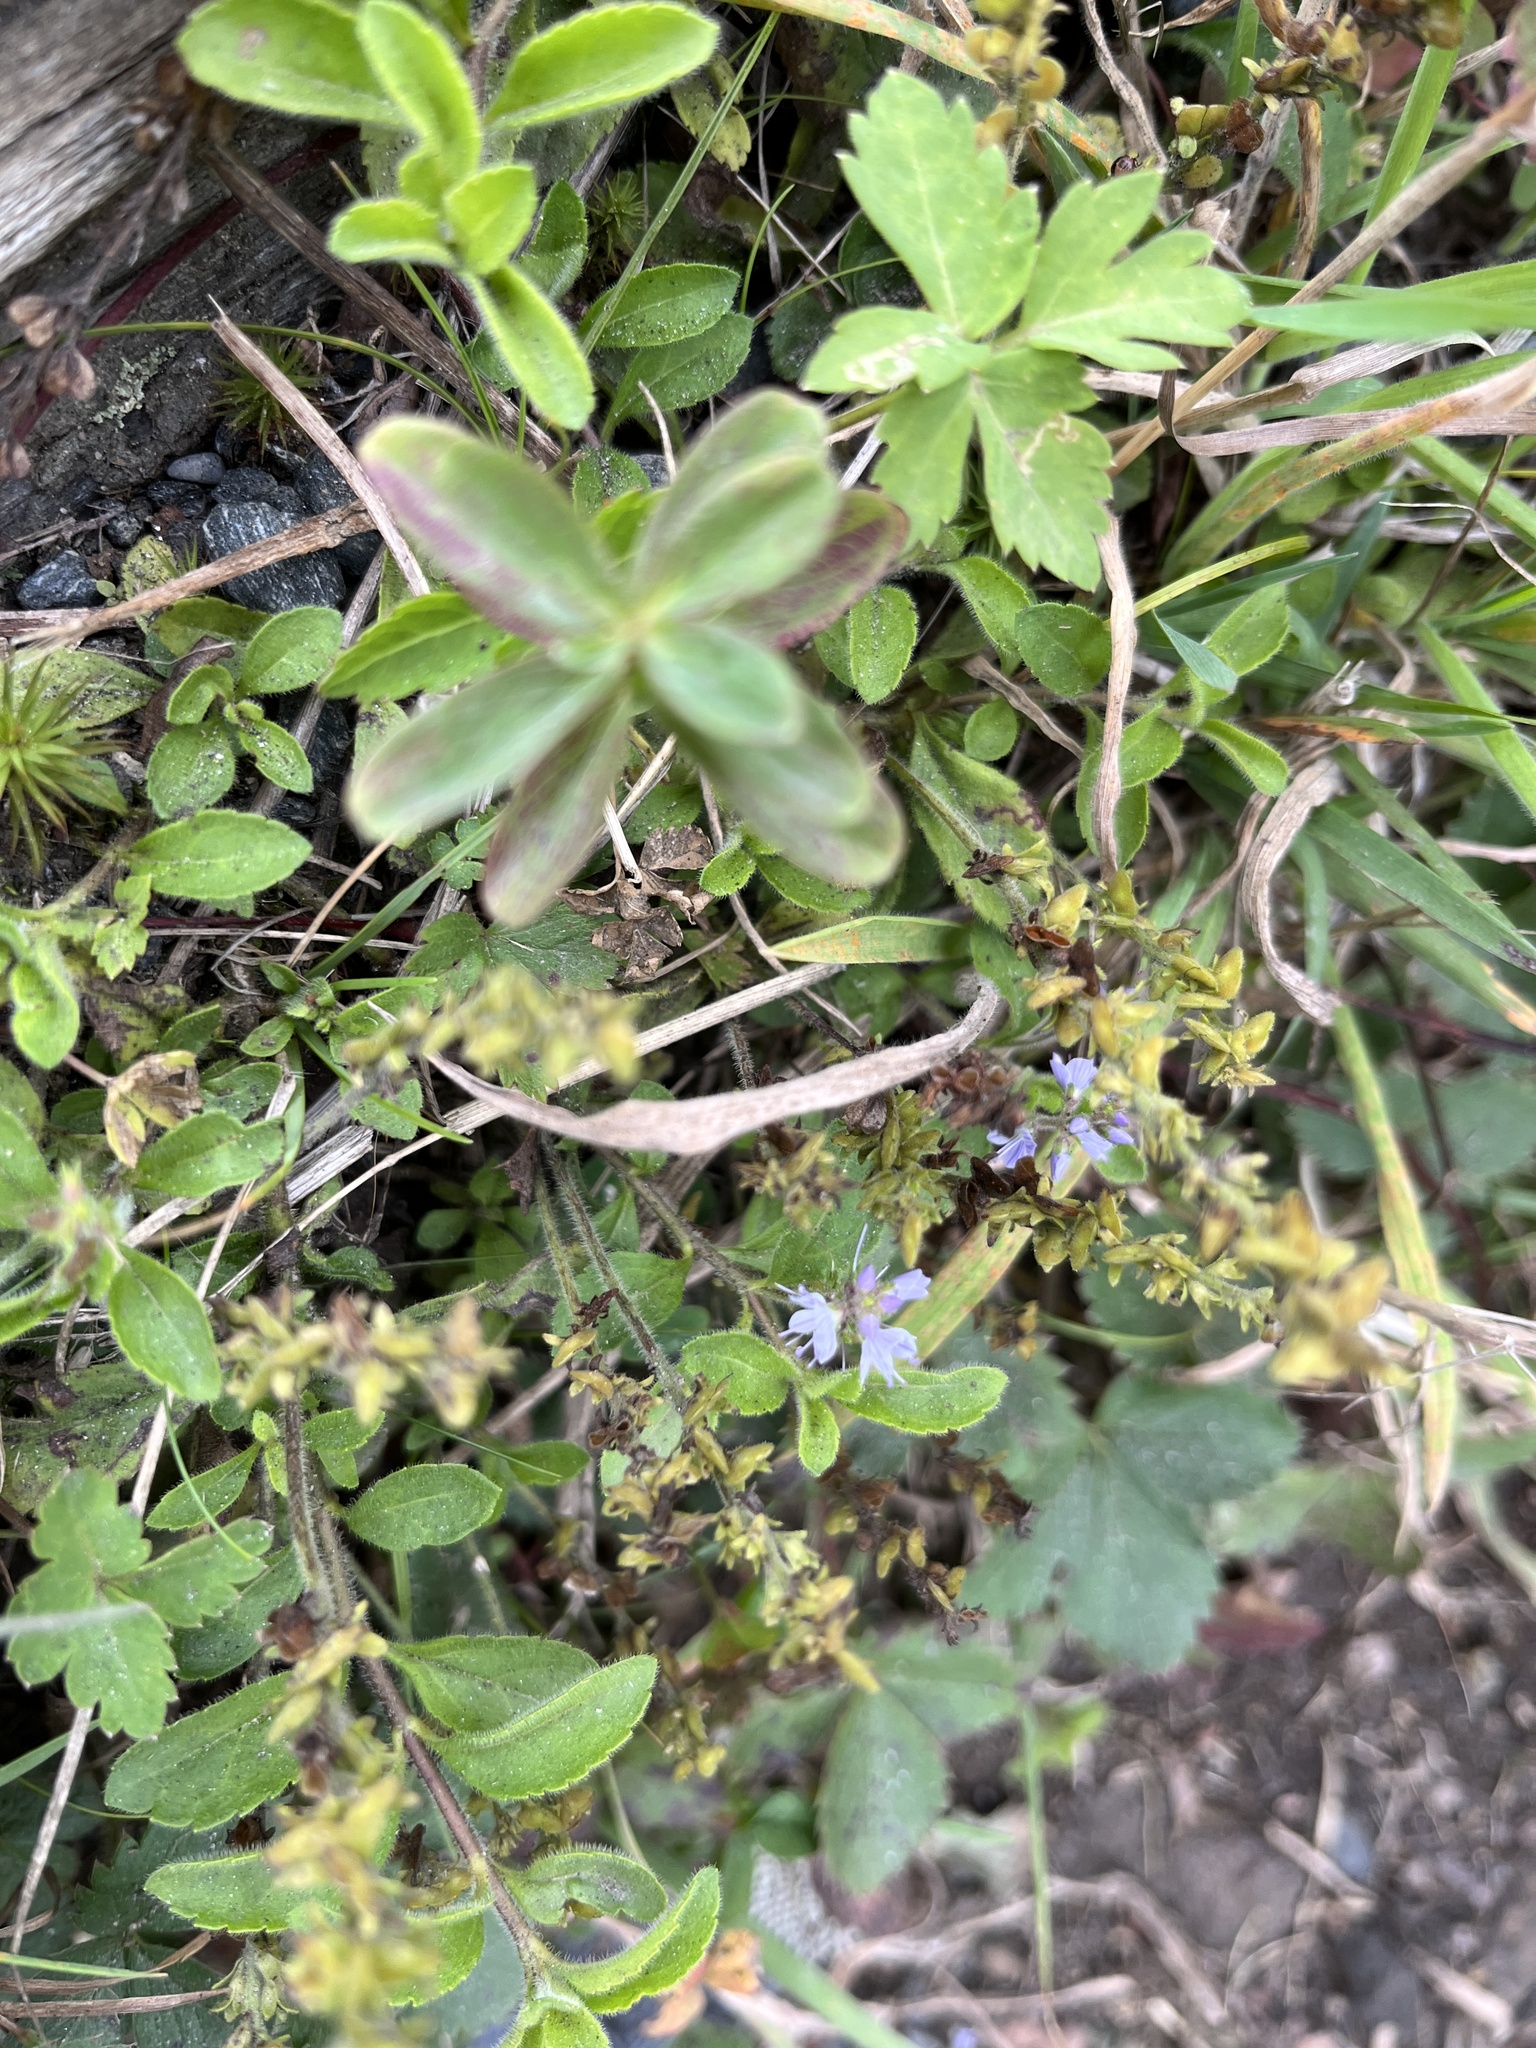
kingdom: Plantae
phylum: Tracheophyta
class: Magnoliopsida
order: Lamiales
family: Plantaginaceae
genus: Veronica
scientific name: Veronica officinalis
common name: Common speedwell
